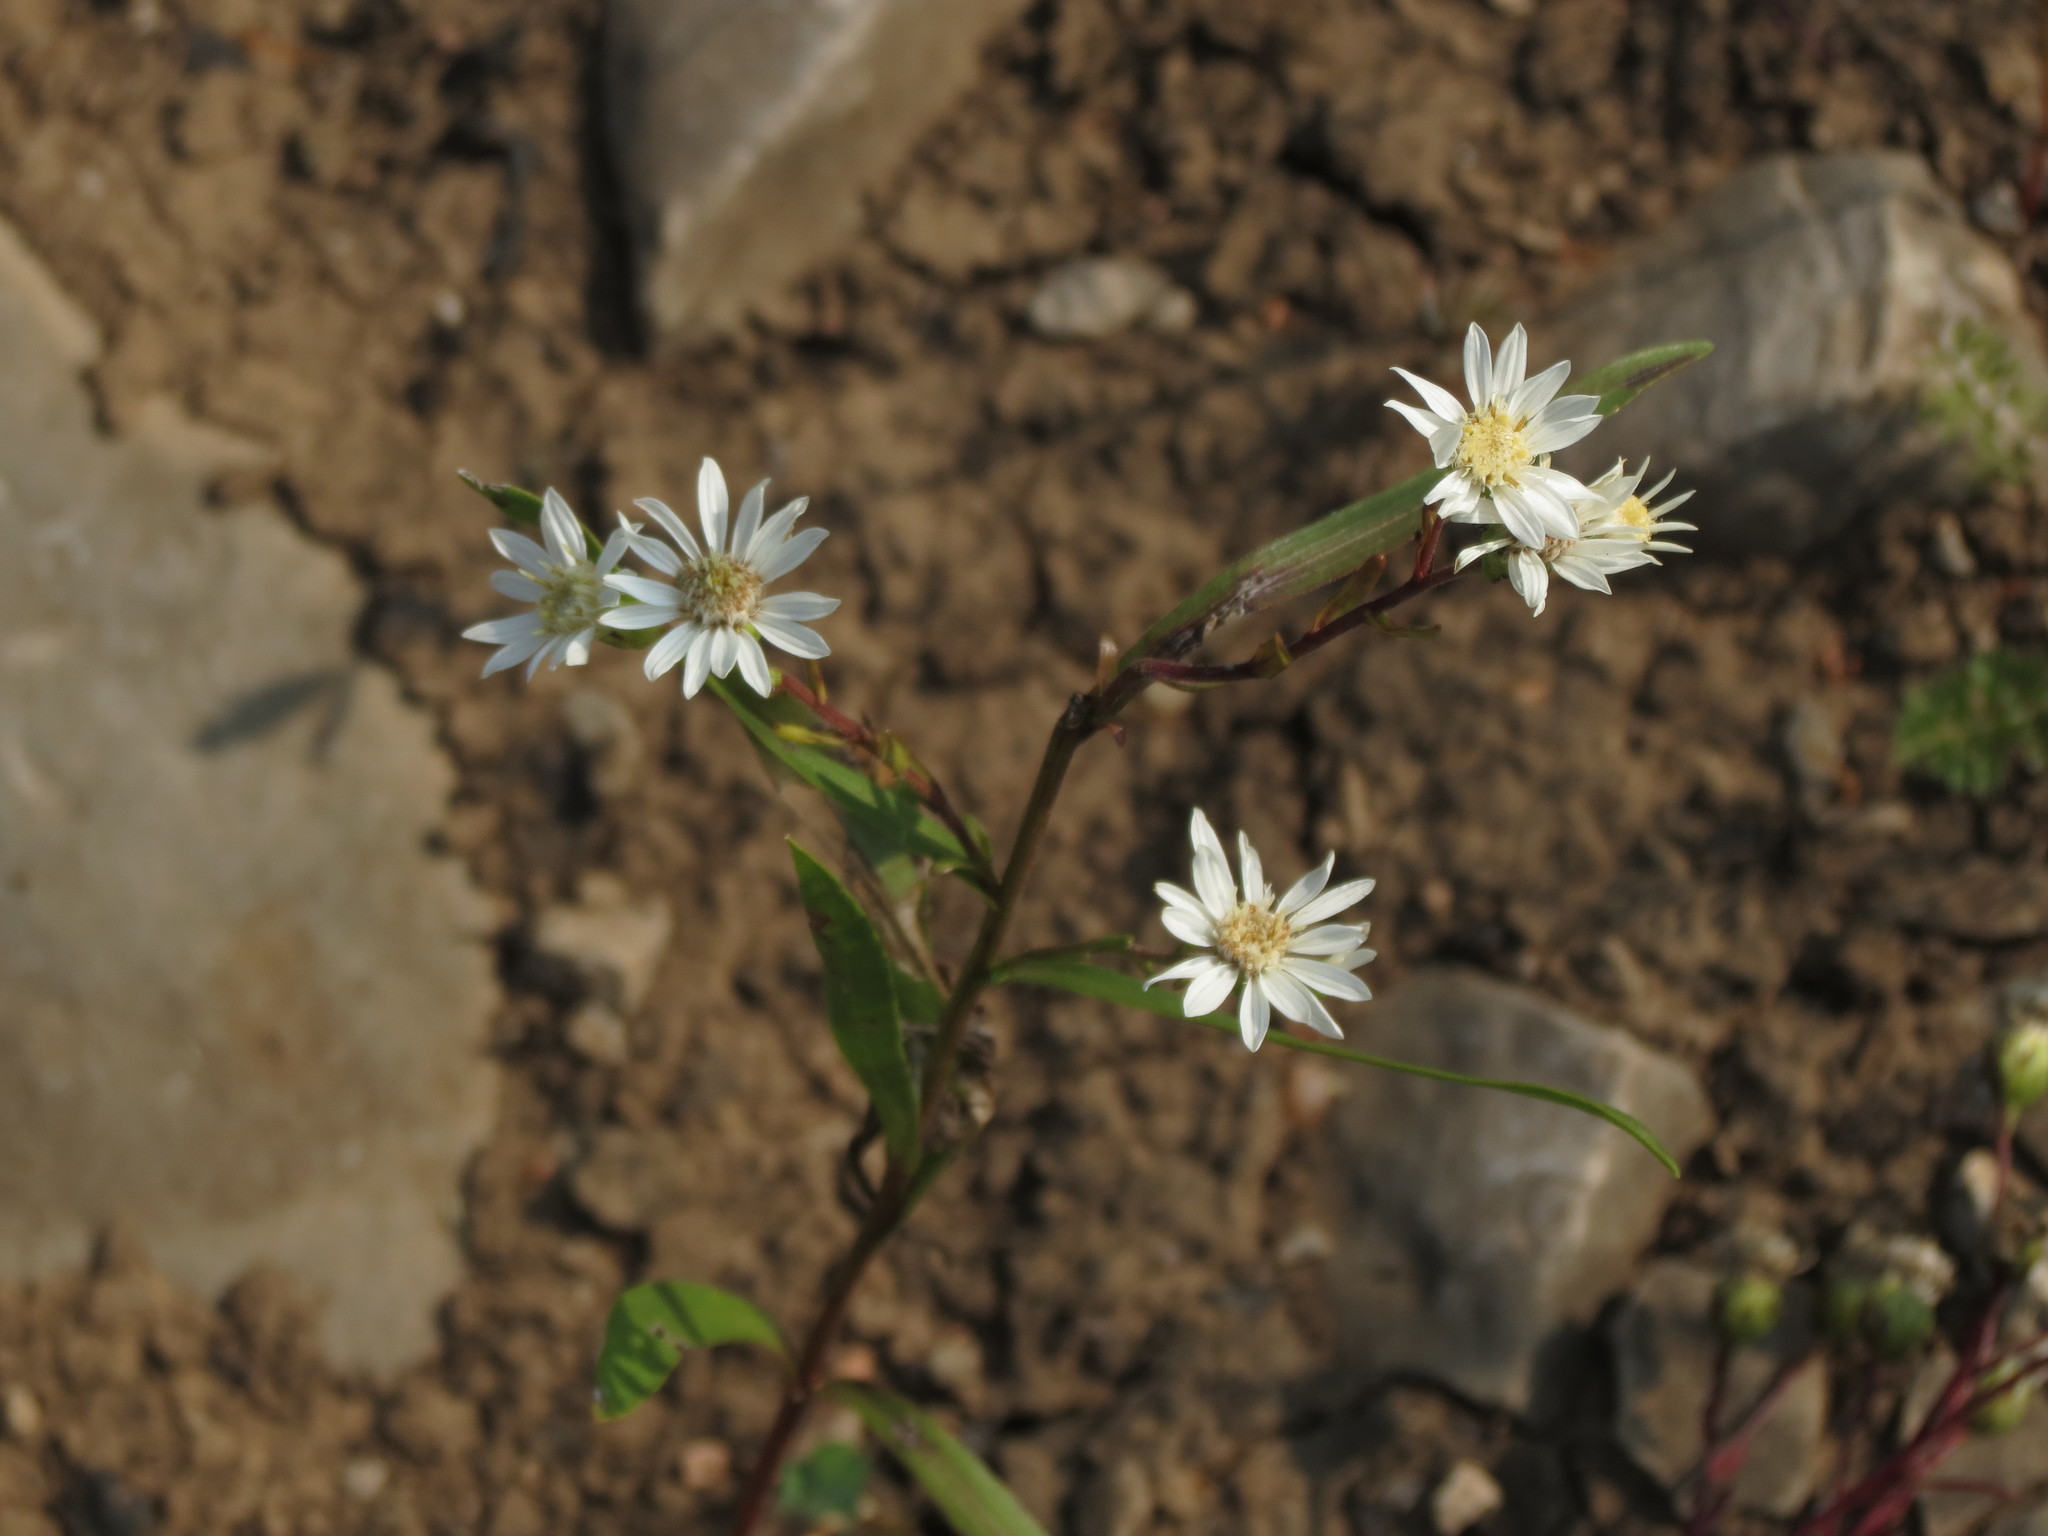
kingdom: Plantae
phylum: Tracheophyta
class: Magnoliopsida
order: Asterales
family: Asteraceae
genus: Solidago
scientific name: Solidago ptarmicoides
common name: White flat-top goldenrod
